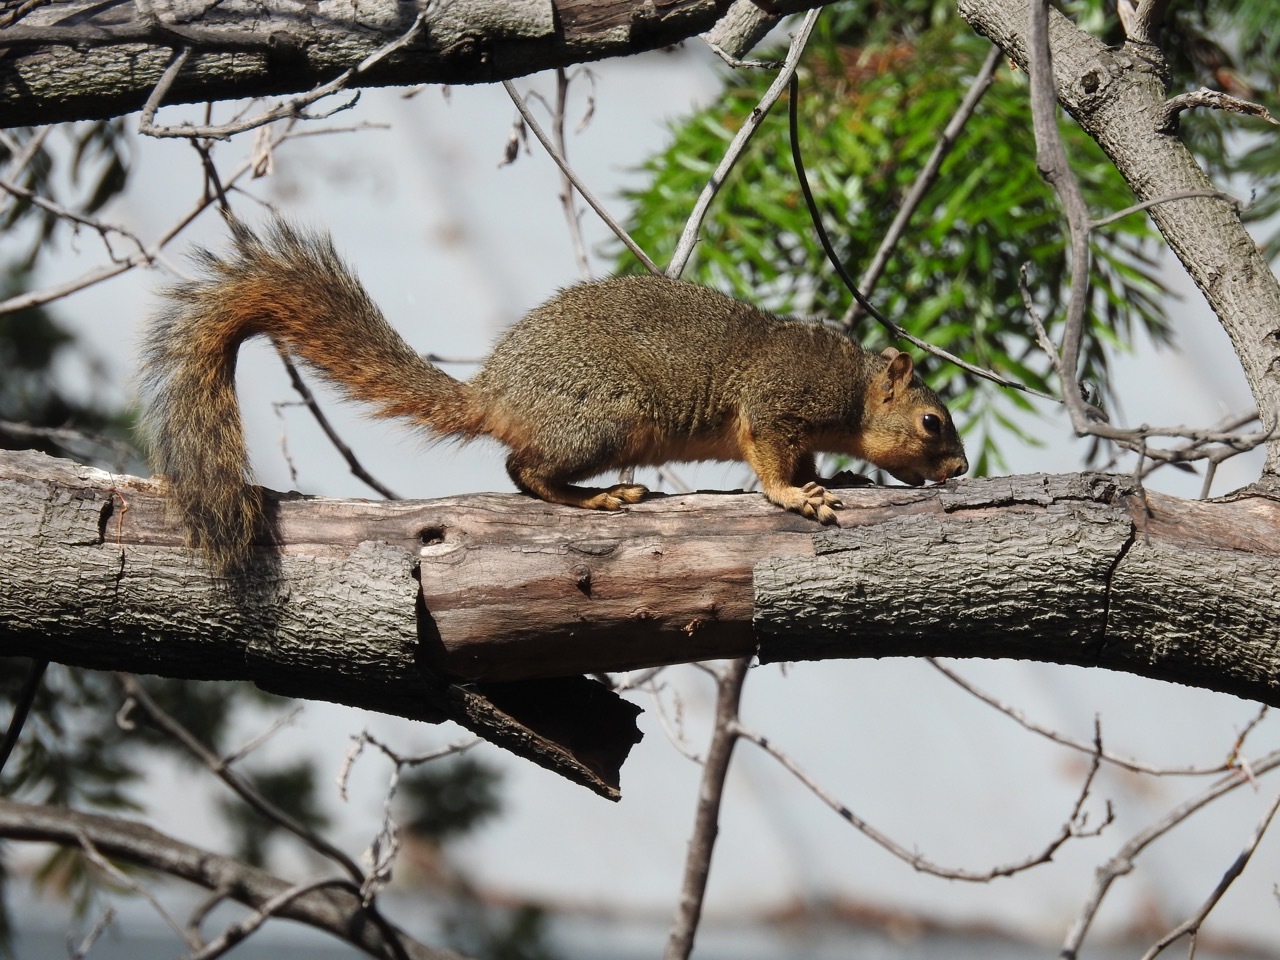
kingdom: Animalia
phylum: Chordata
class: Mammalia
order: Rodentia
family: Sciuridae
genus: Sciurus
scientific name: Sciurus niger
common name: Fox squirrel
